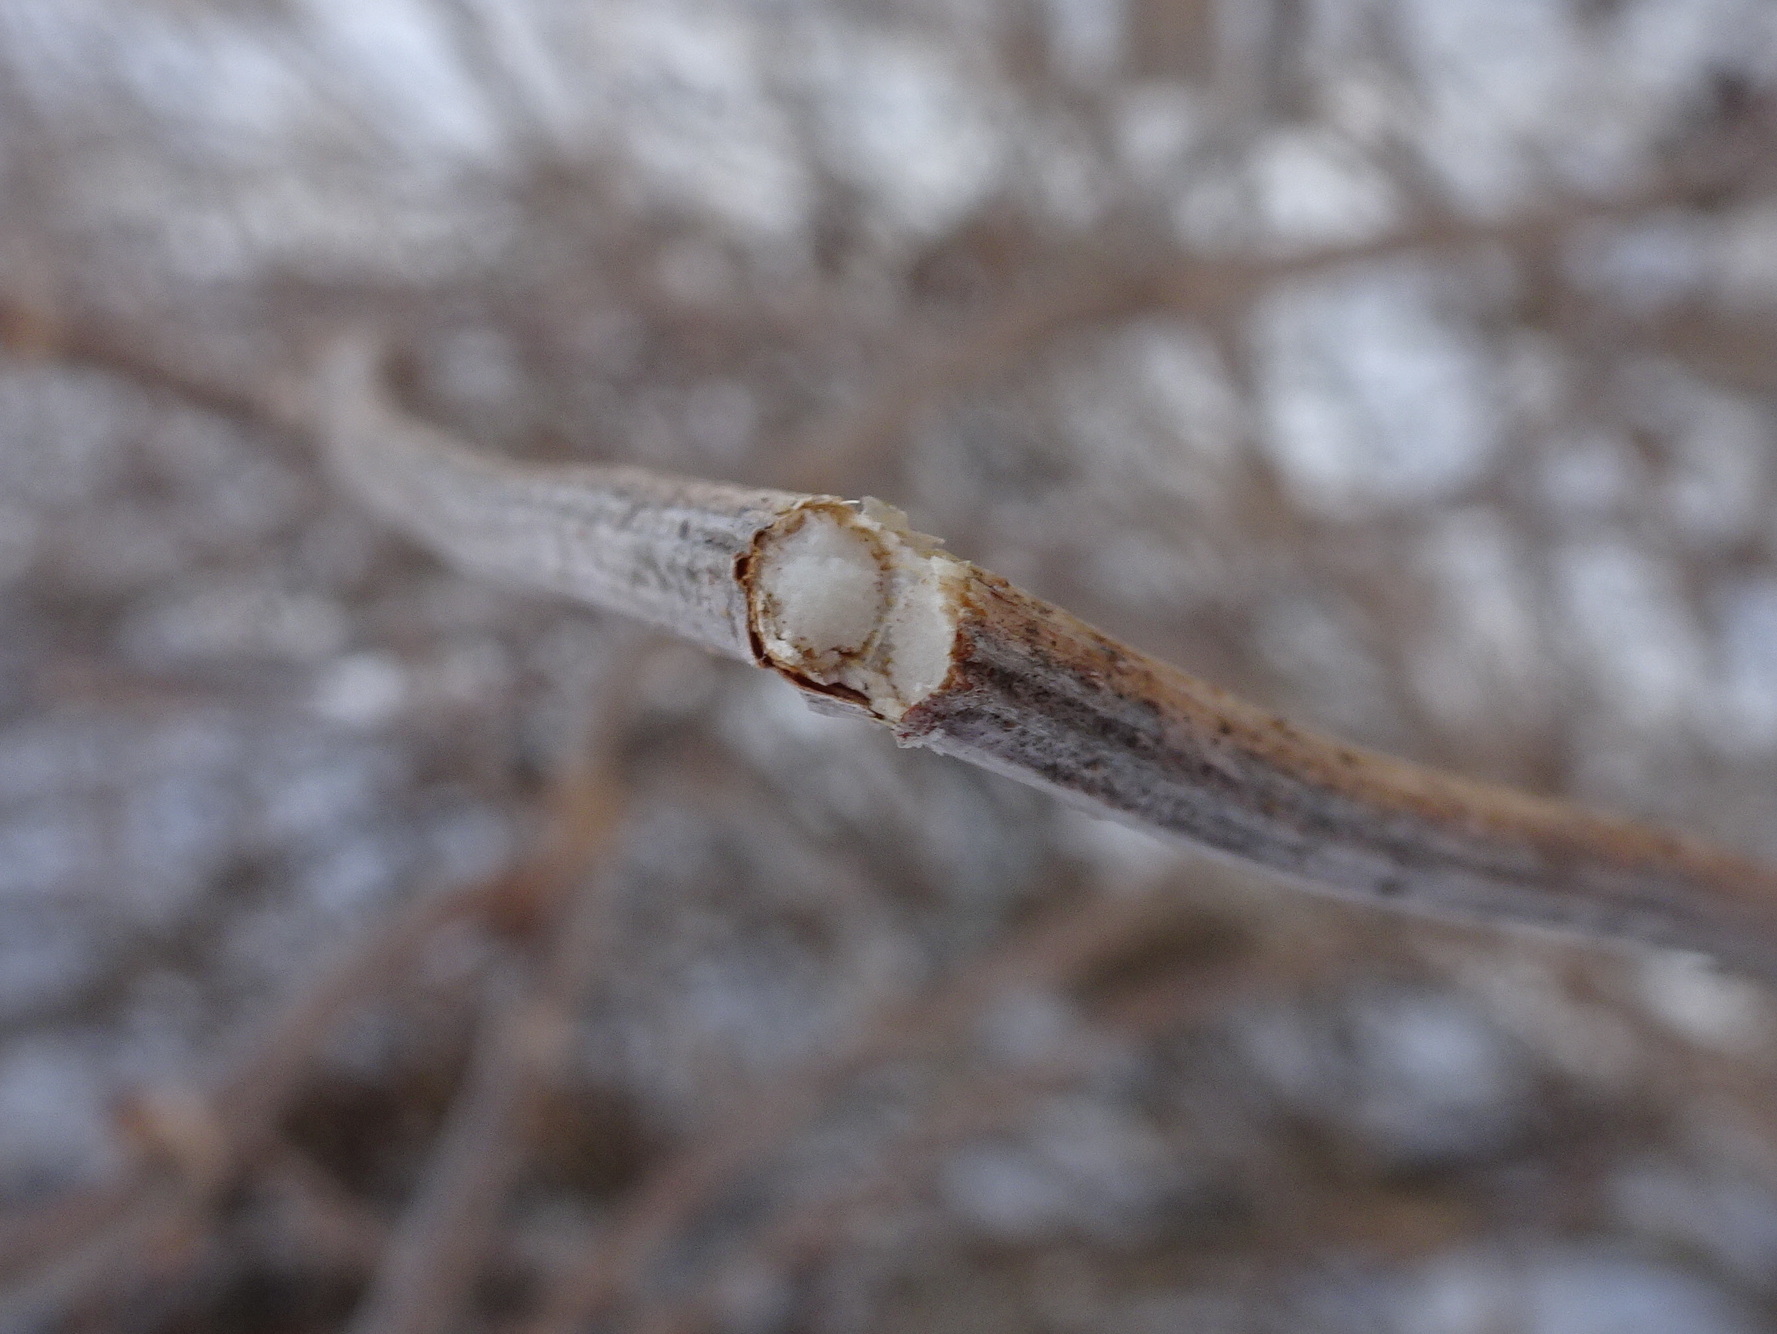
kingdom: Plantae
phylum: Tracheophyta
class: Magnoliopsida
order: Dipsacales
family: Viburnaceae
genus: Sambucus
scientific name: Sambucus canadensis
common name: American elder
